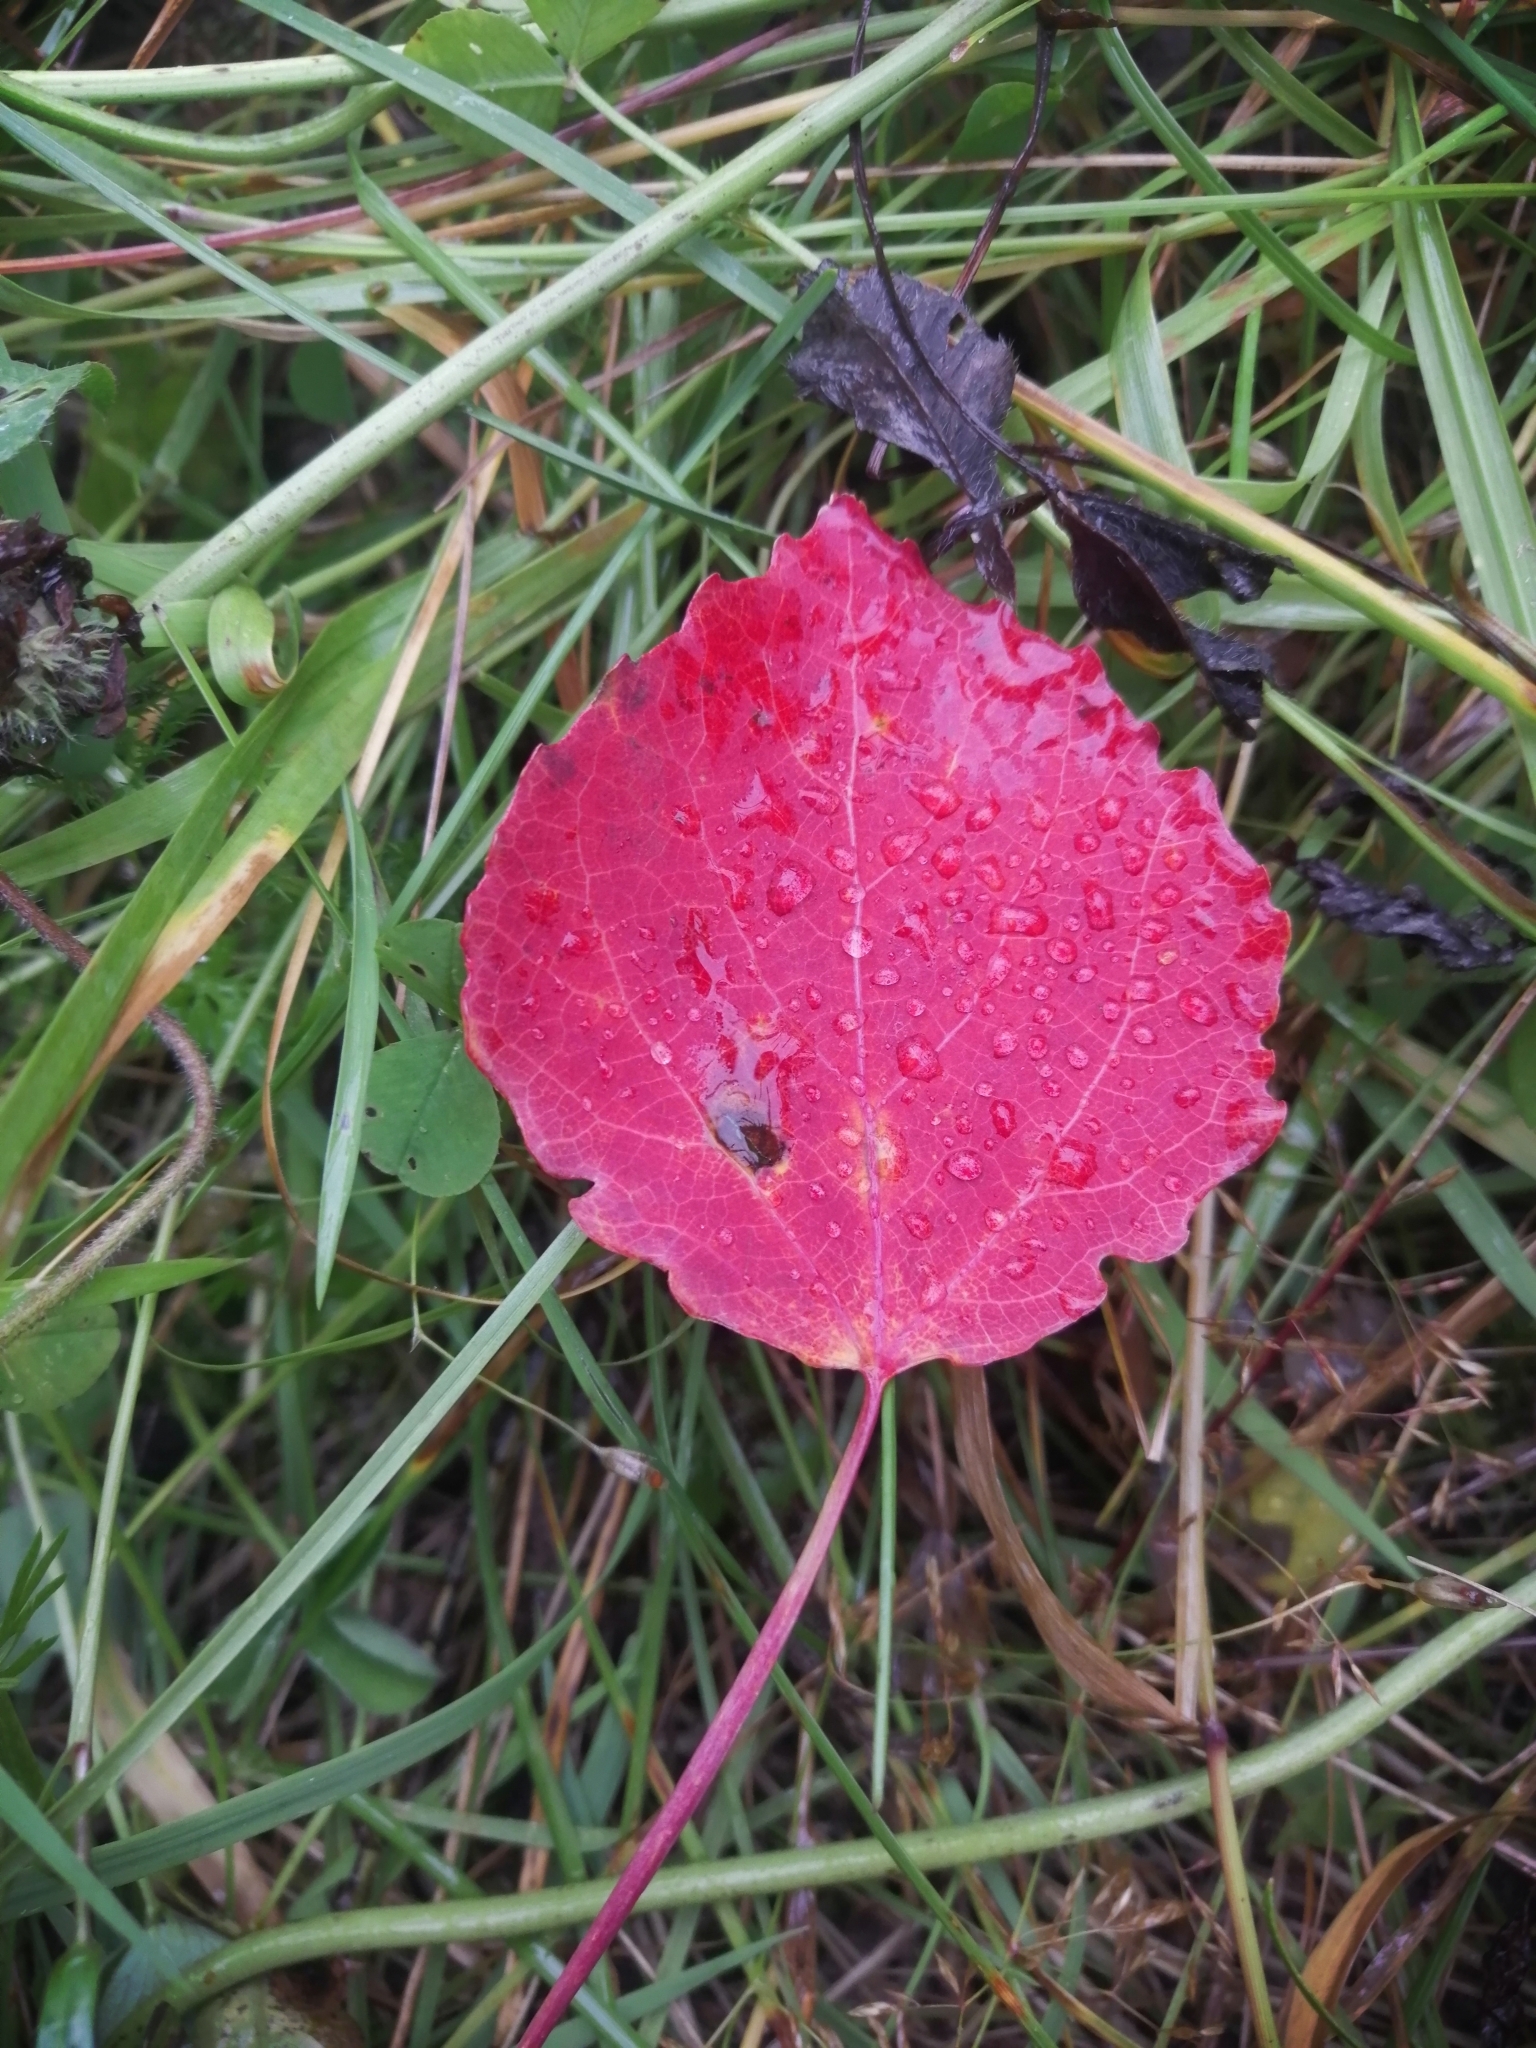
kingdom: Plantae
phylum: Tracheophyta
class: Magnoliopsida
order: Malpighiales
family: Salicaceae
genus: Populus
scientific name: Populus tremula
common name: European aspen
